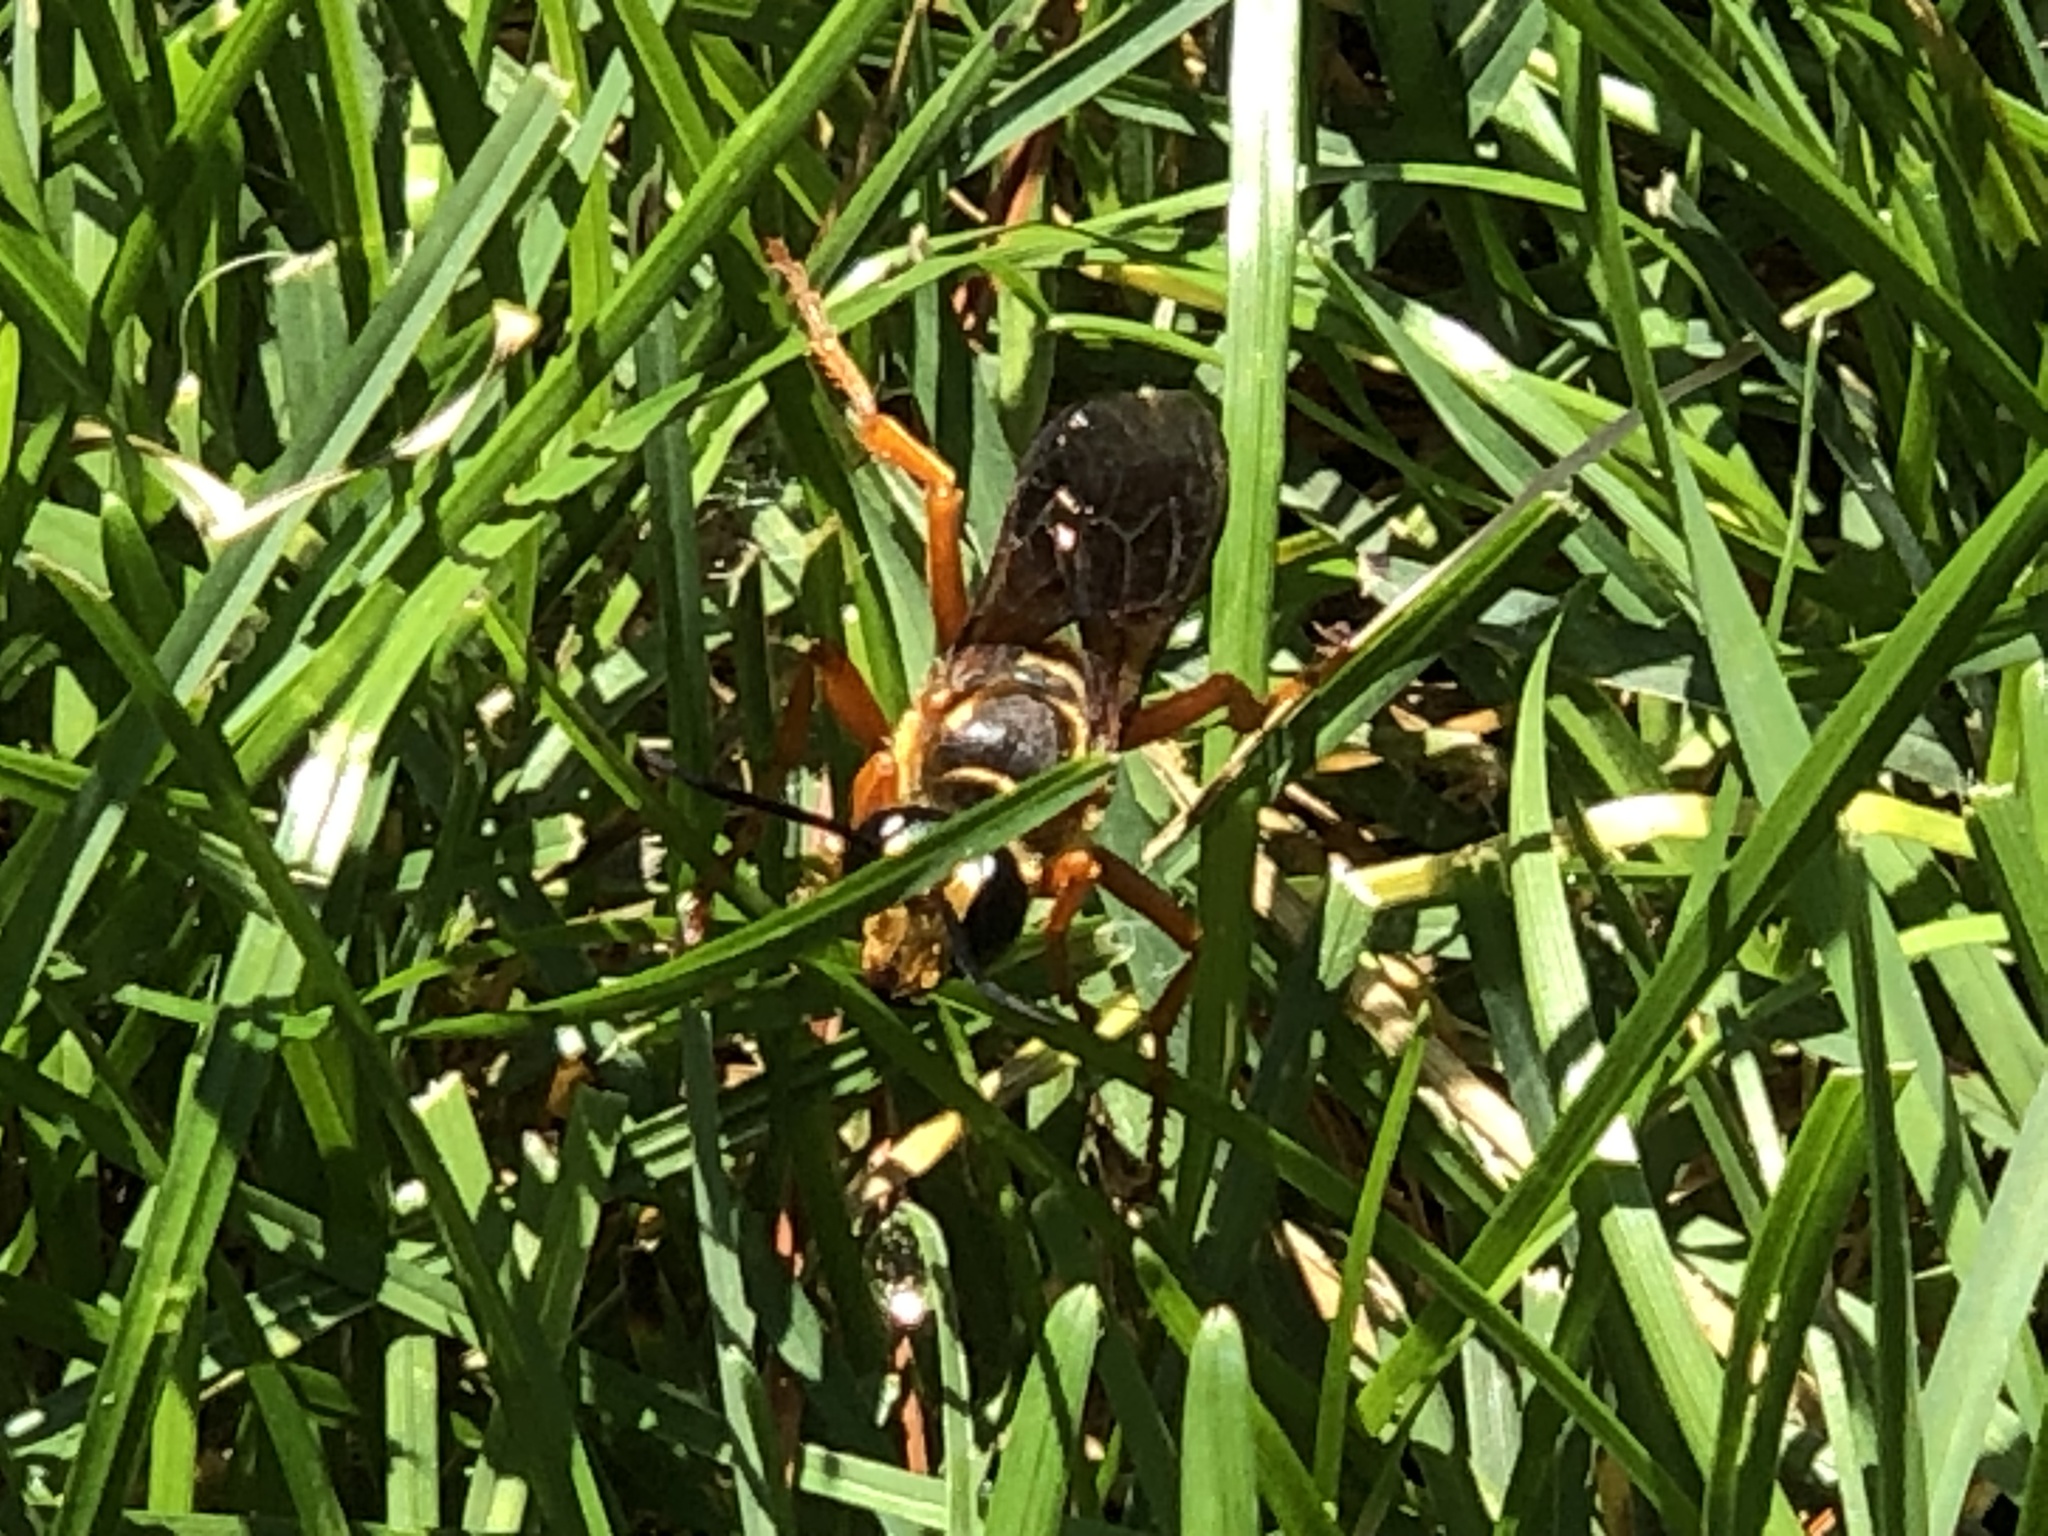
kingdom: Animalia
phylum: Arthropoda
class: Insecta
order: Hymenoptera
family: Sphecidae
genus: Sphex
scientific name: Sphex ichneumoneus
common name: Great golden digger wasp
